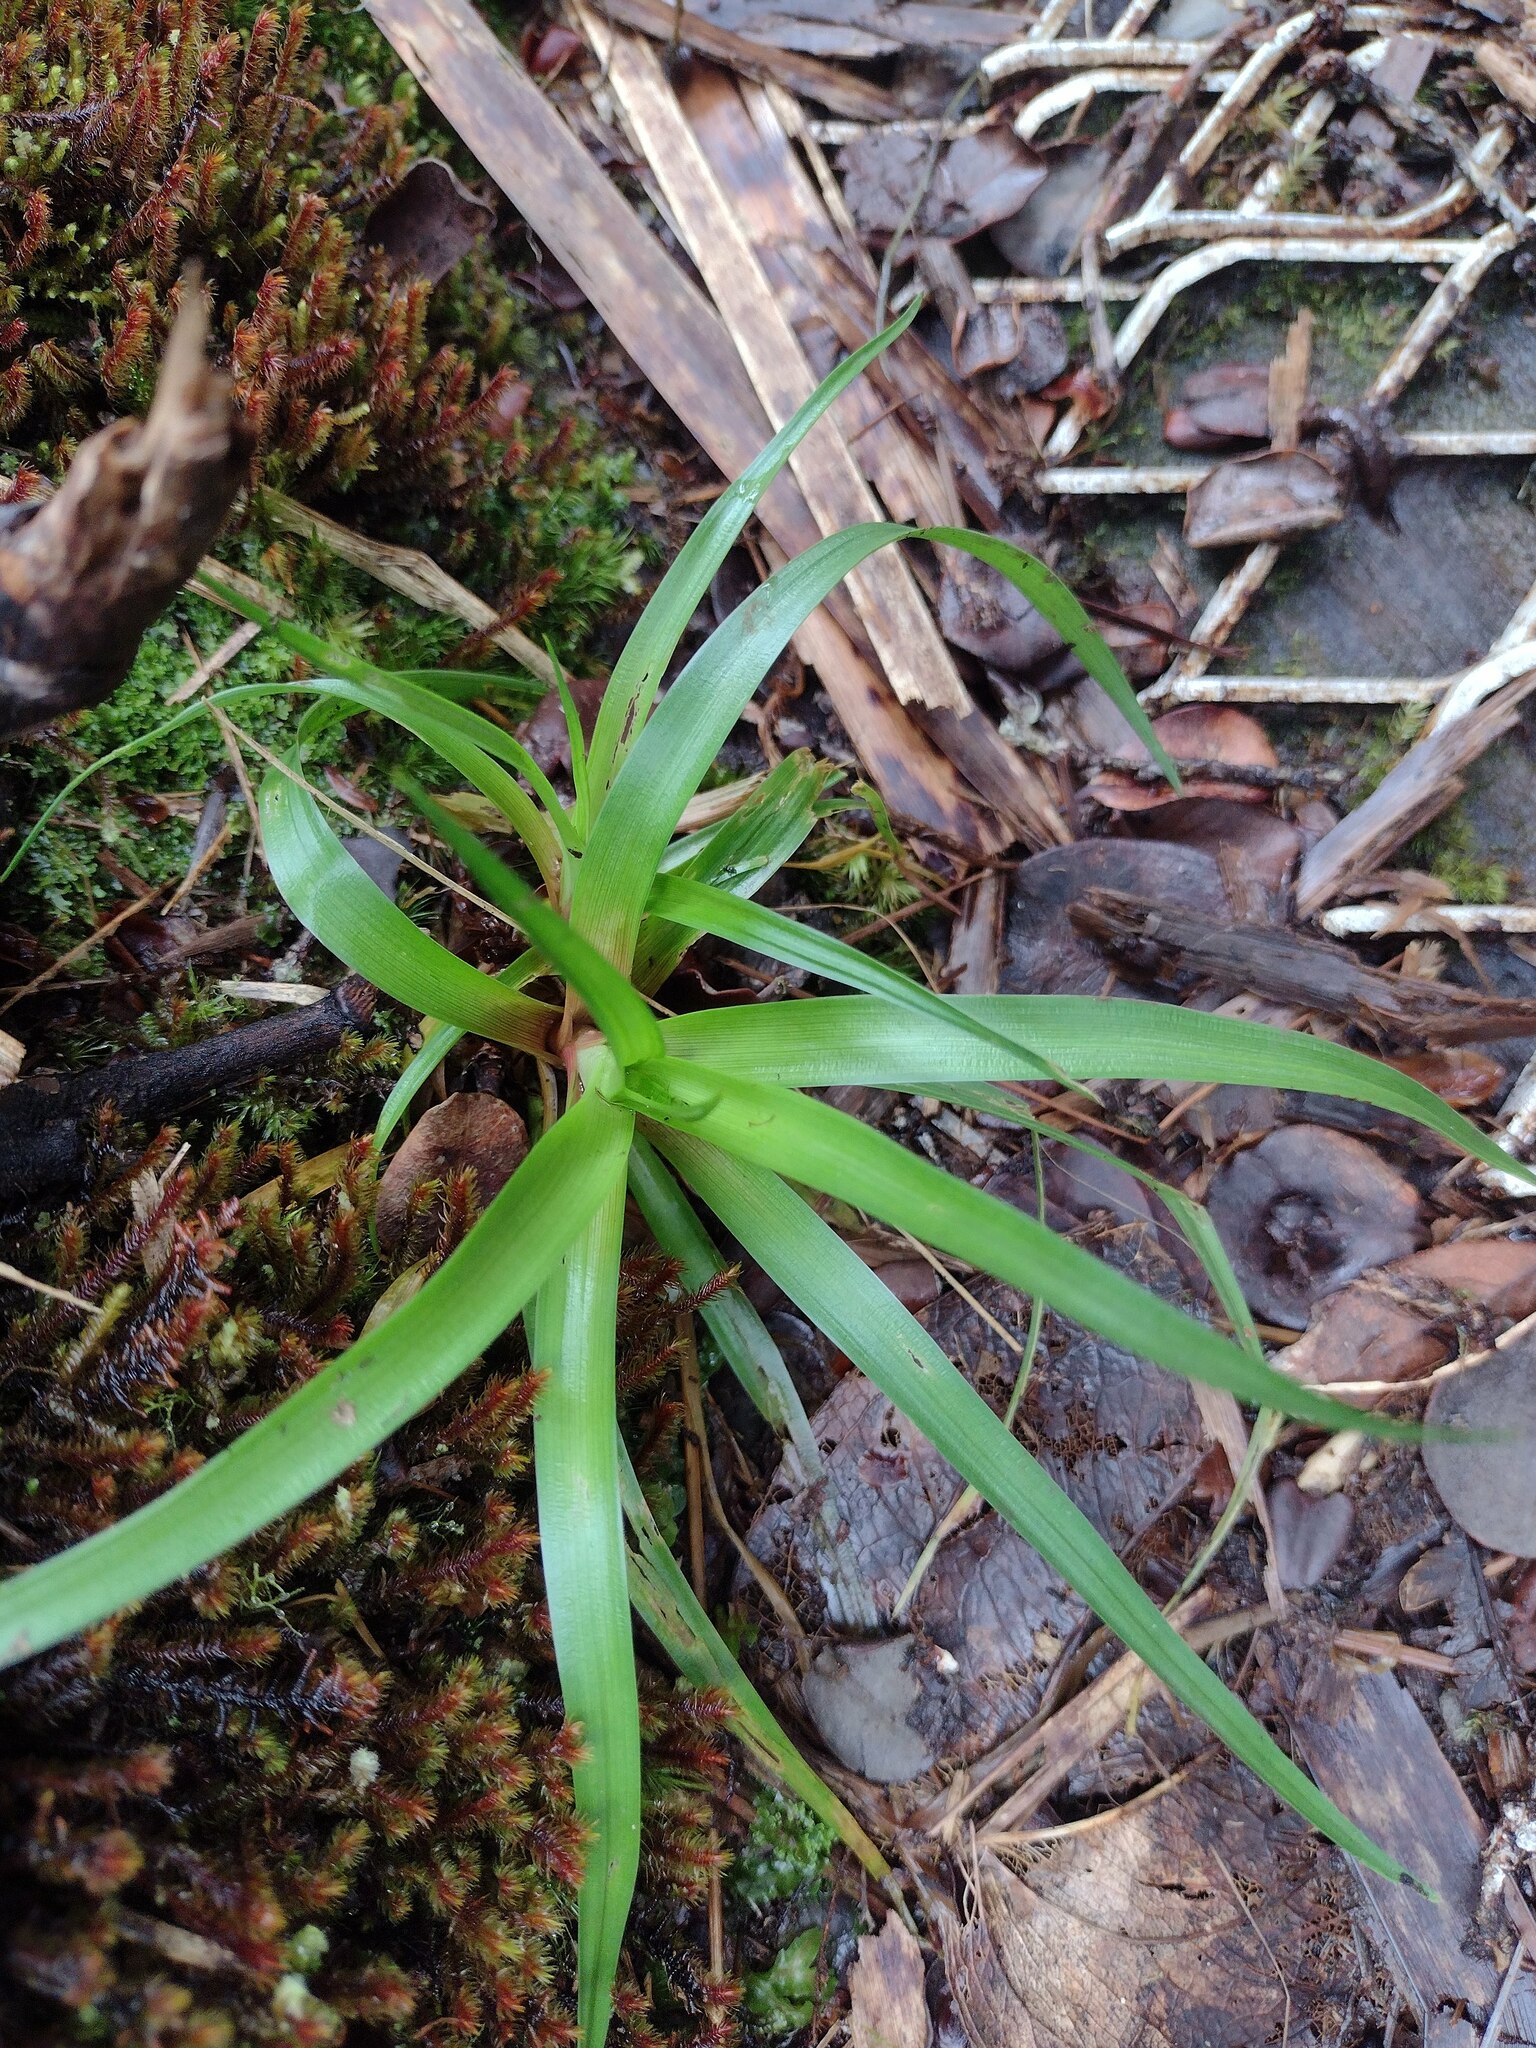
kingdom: Plantae
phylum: Tracheophyta
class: Liliopsida
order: Poales
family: Juncaceae
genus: Juncus
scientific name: Juncus planifolius
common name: Broadleaf rush
